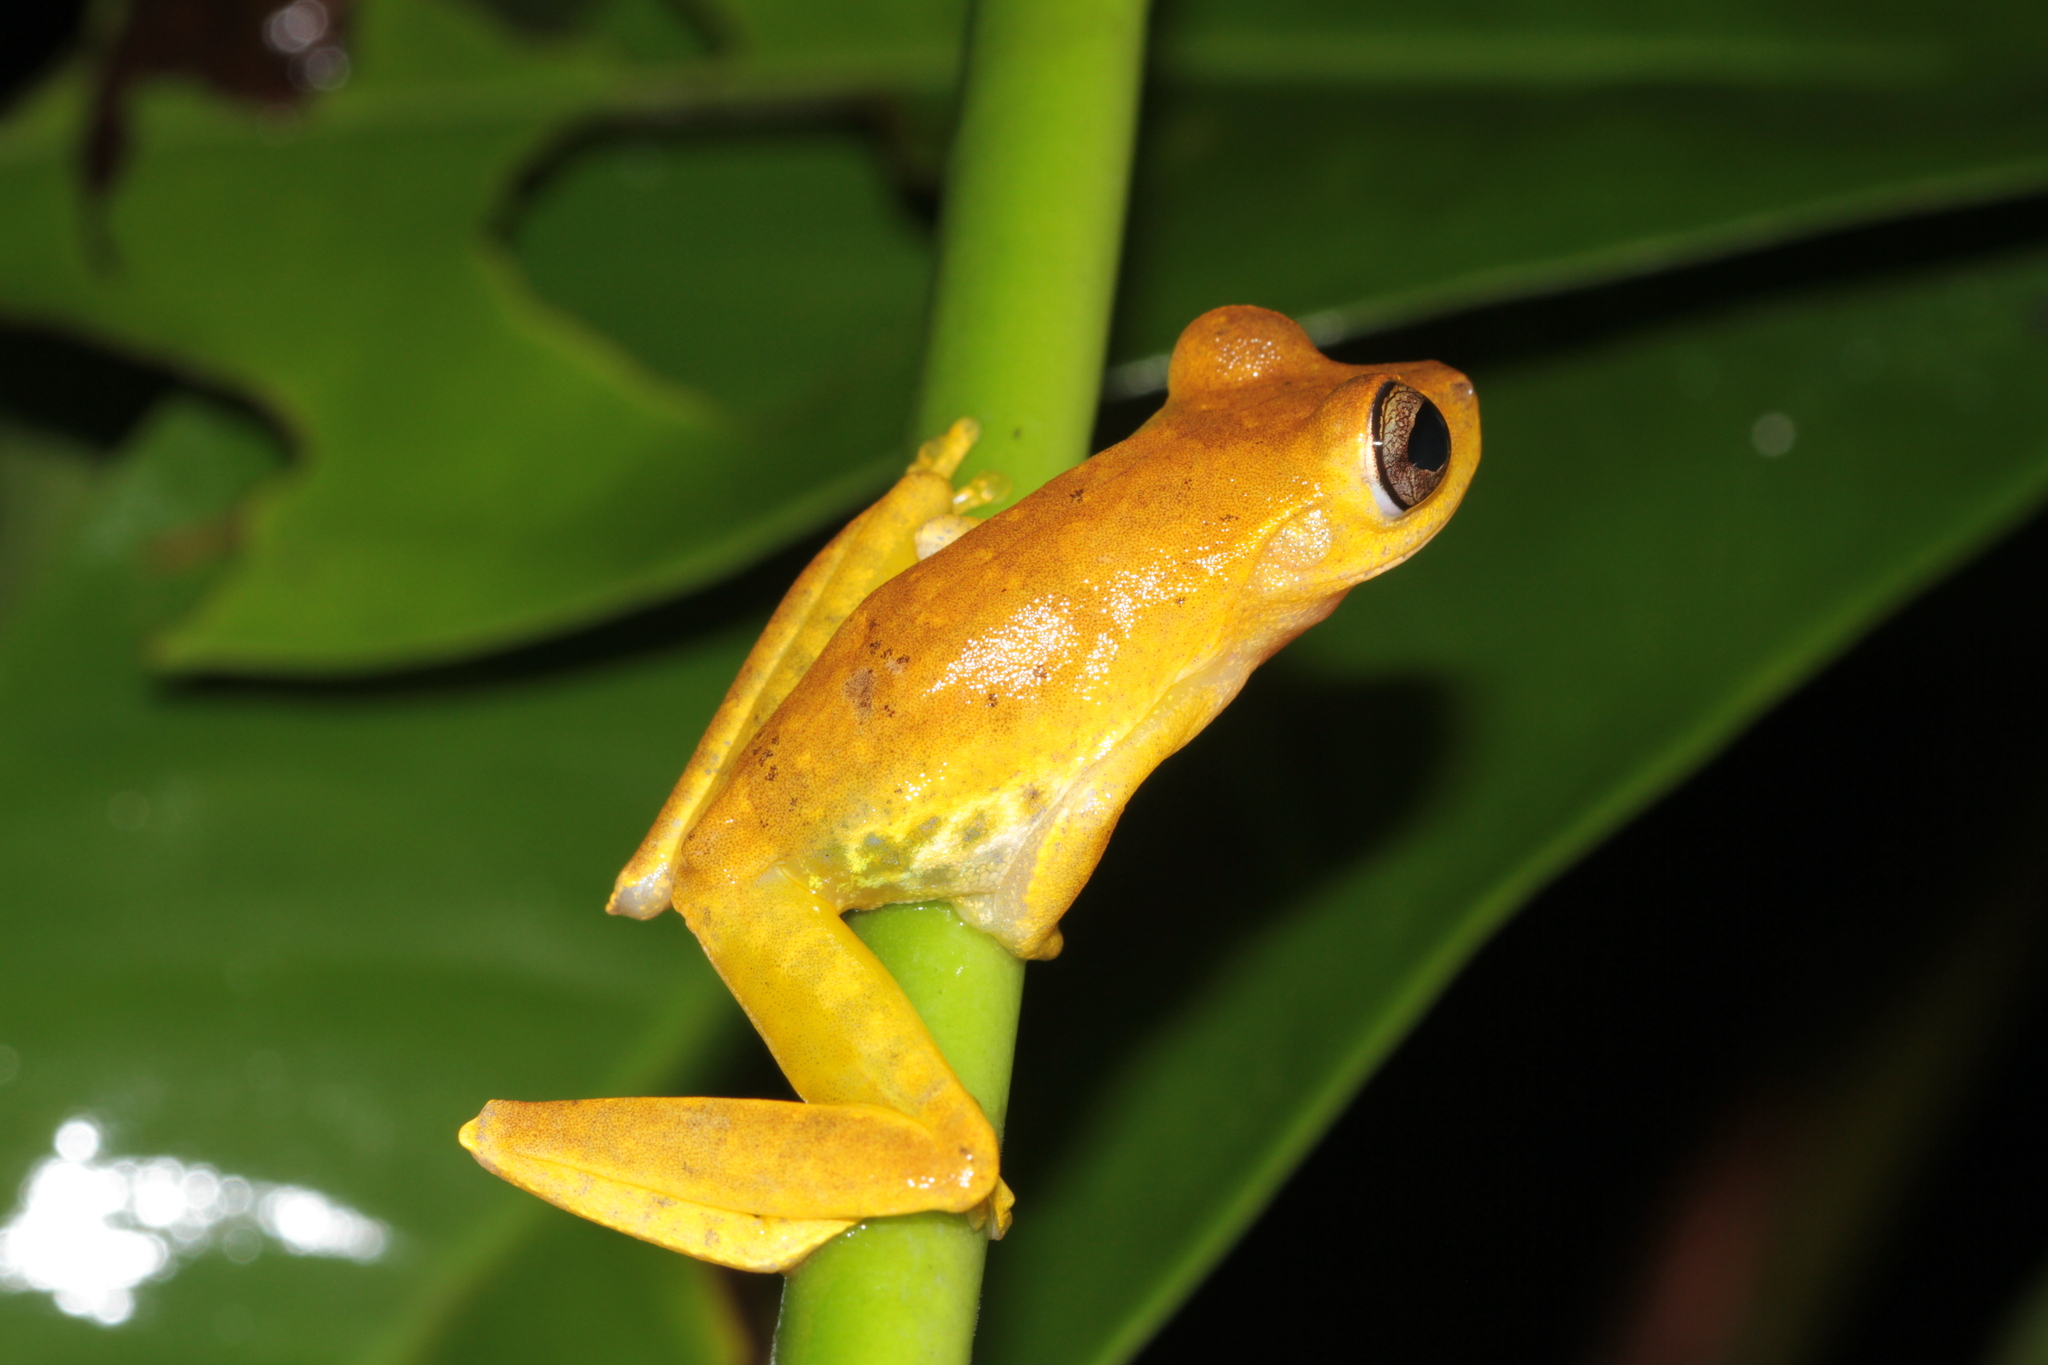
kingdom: Animalia
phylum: Chordata
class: Amphibia
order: Anura
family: Hylidae
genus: Boana
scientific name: Boana courtoisae
